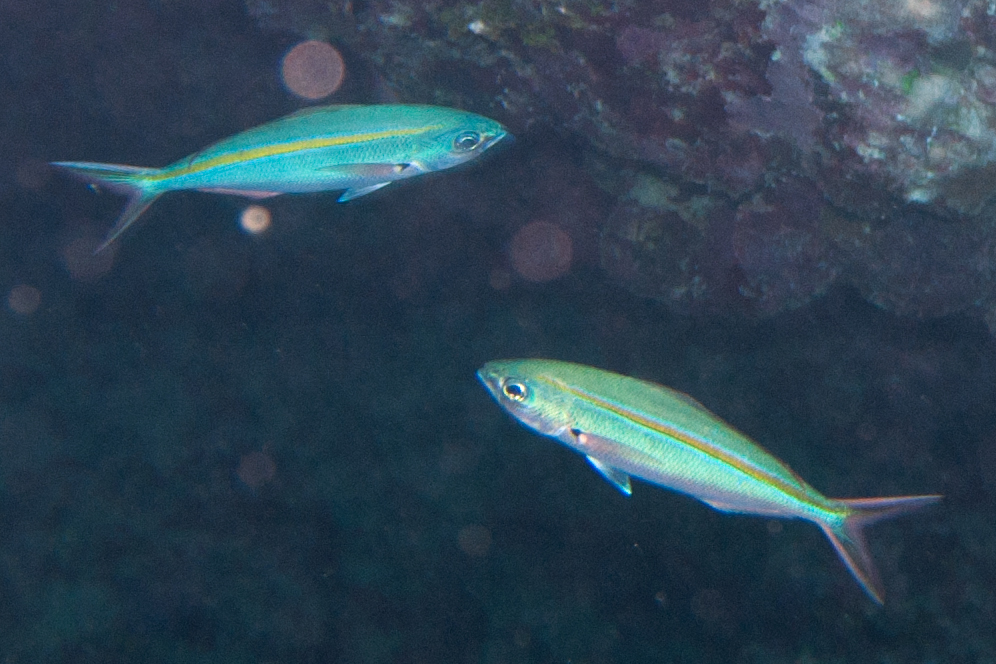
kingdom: Animalia
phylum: Chordata
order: Perciformes
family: Caesionidae
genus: Caesio
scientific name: Caesio caerulaurea
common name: Blue and gold fusilier
